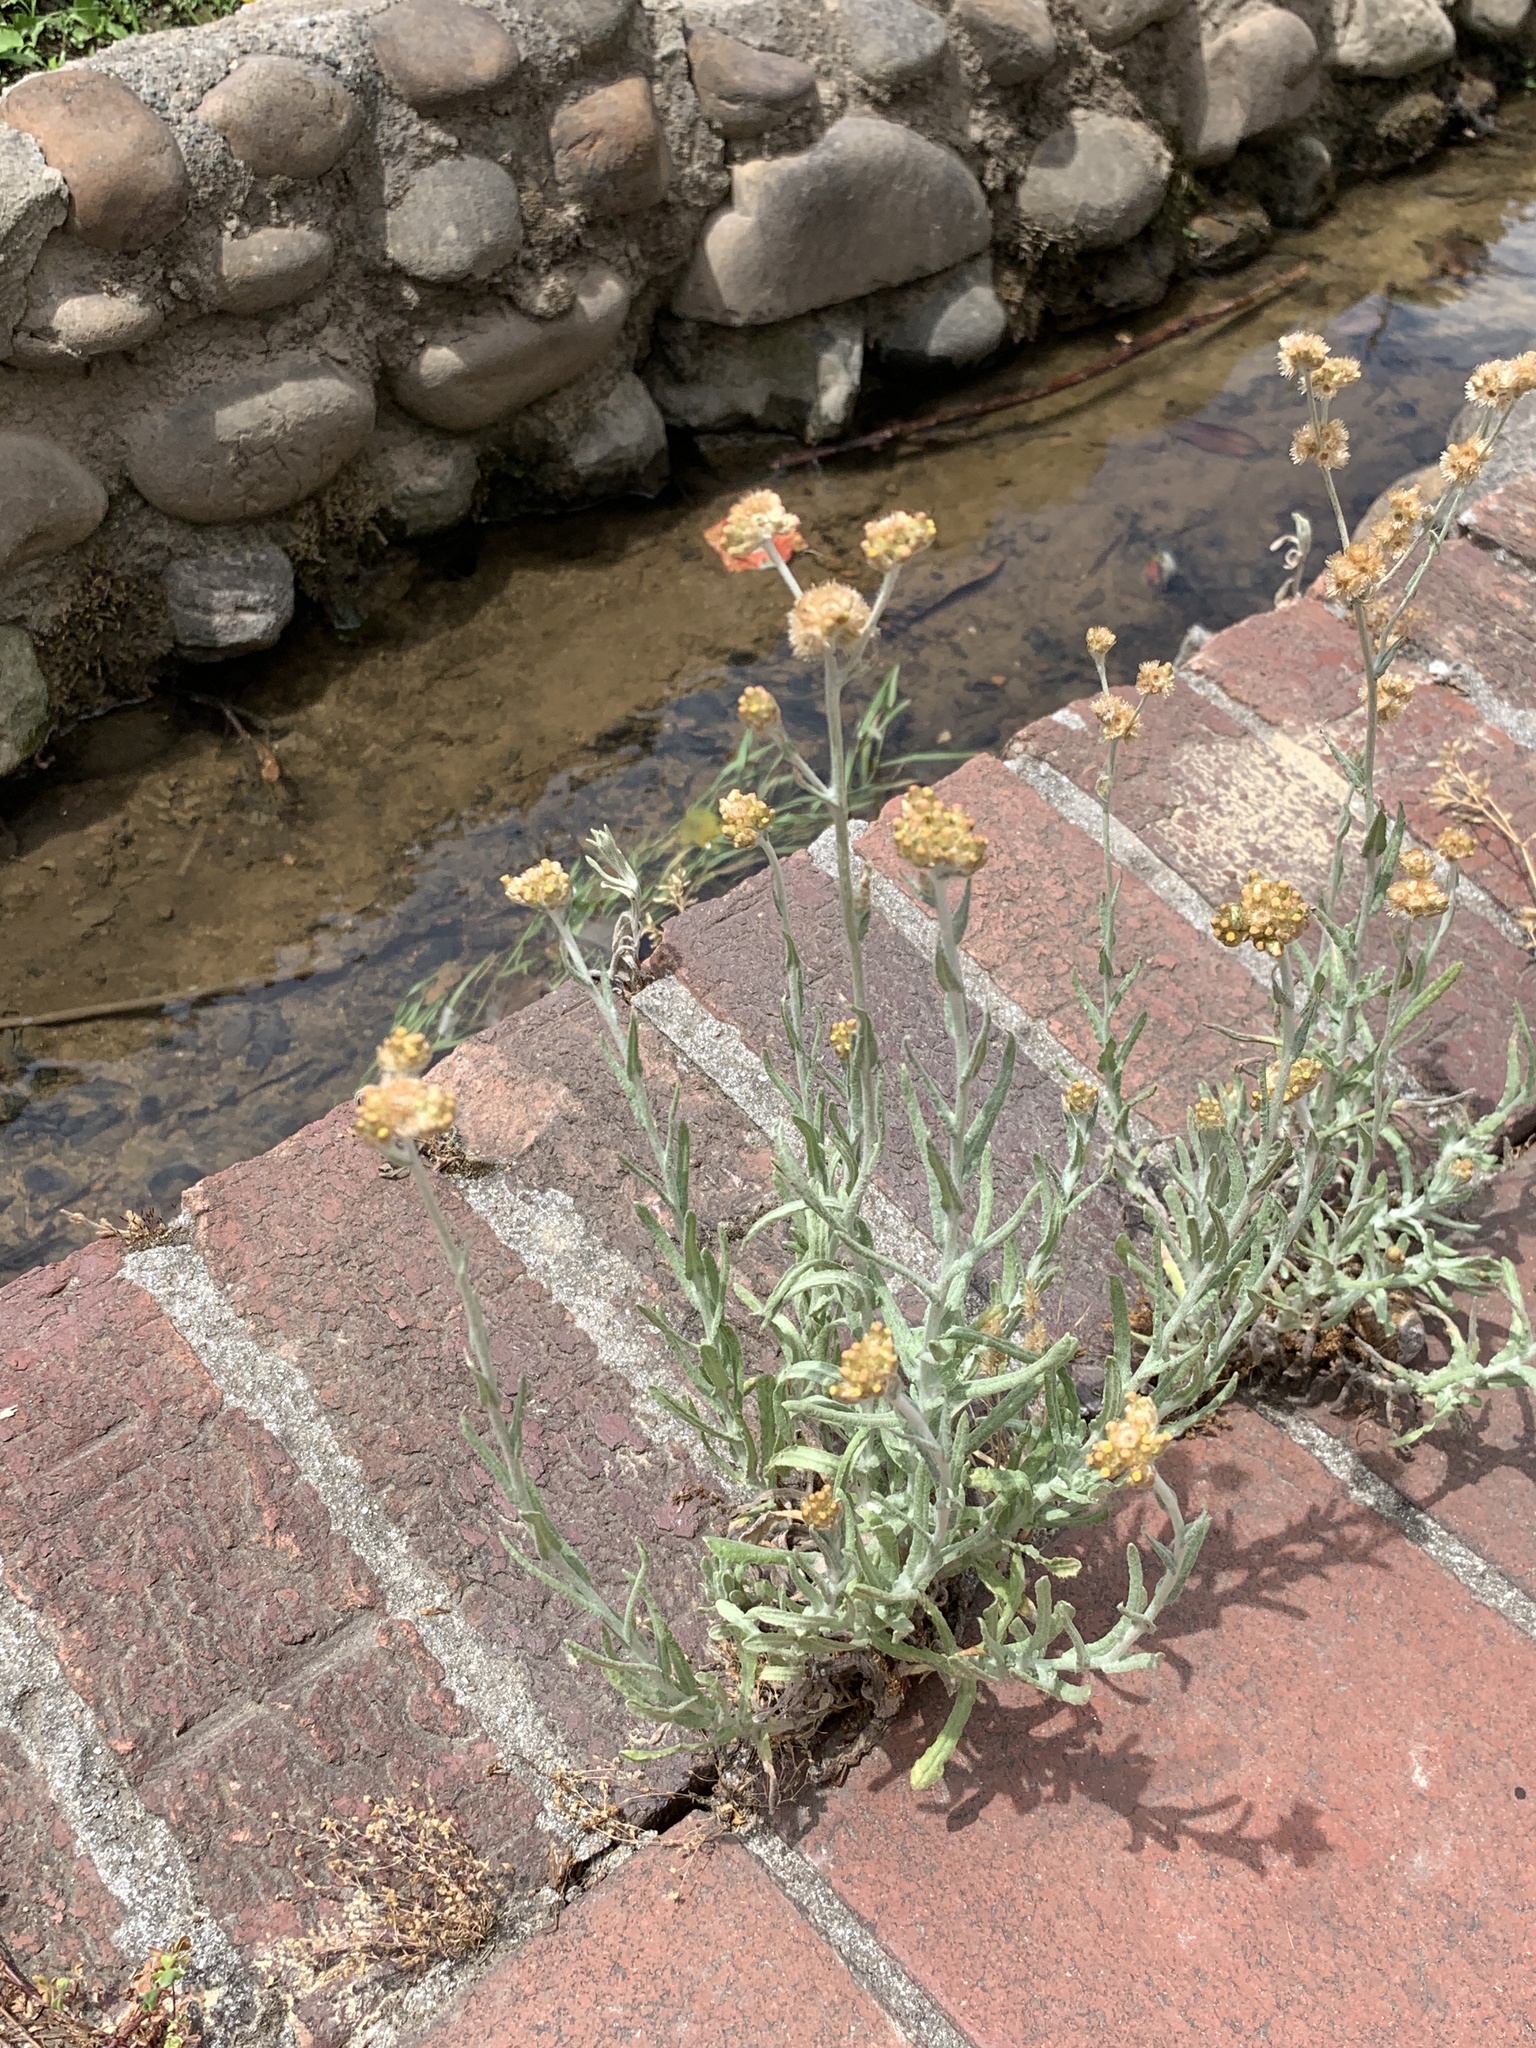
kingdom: Plantae
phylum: Tracheophyta
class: Magnoliopsida
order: Asterales
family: Asteraceae
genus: Helichrysum
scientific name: Helichrysum luteoalbum
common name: Daisy
